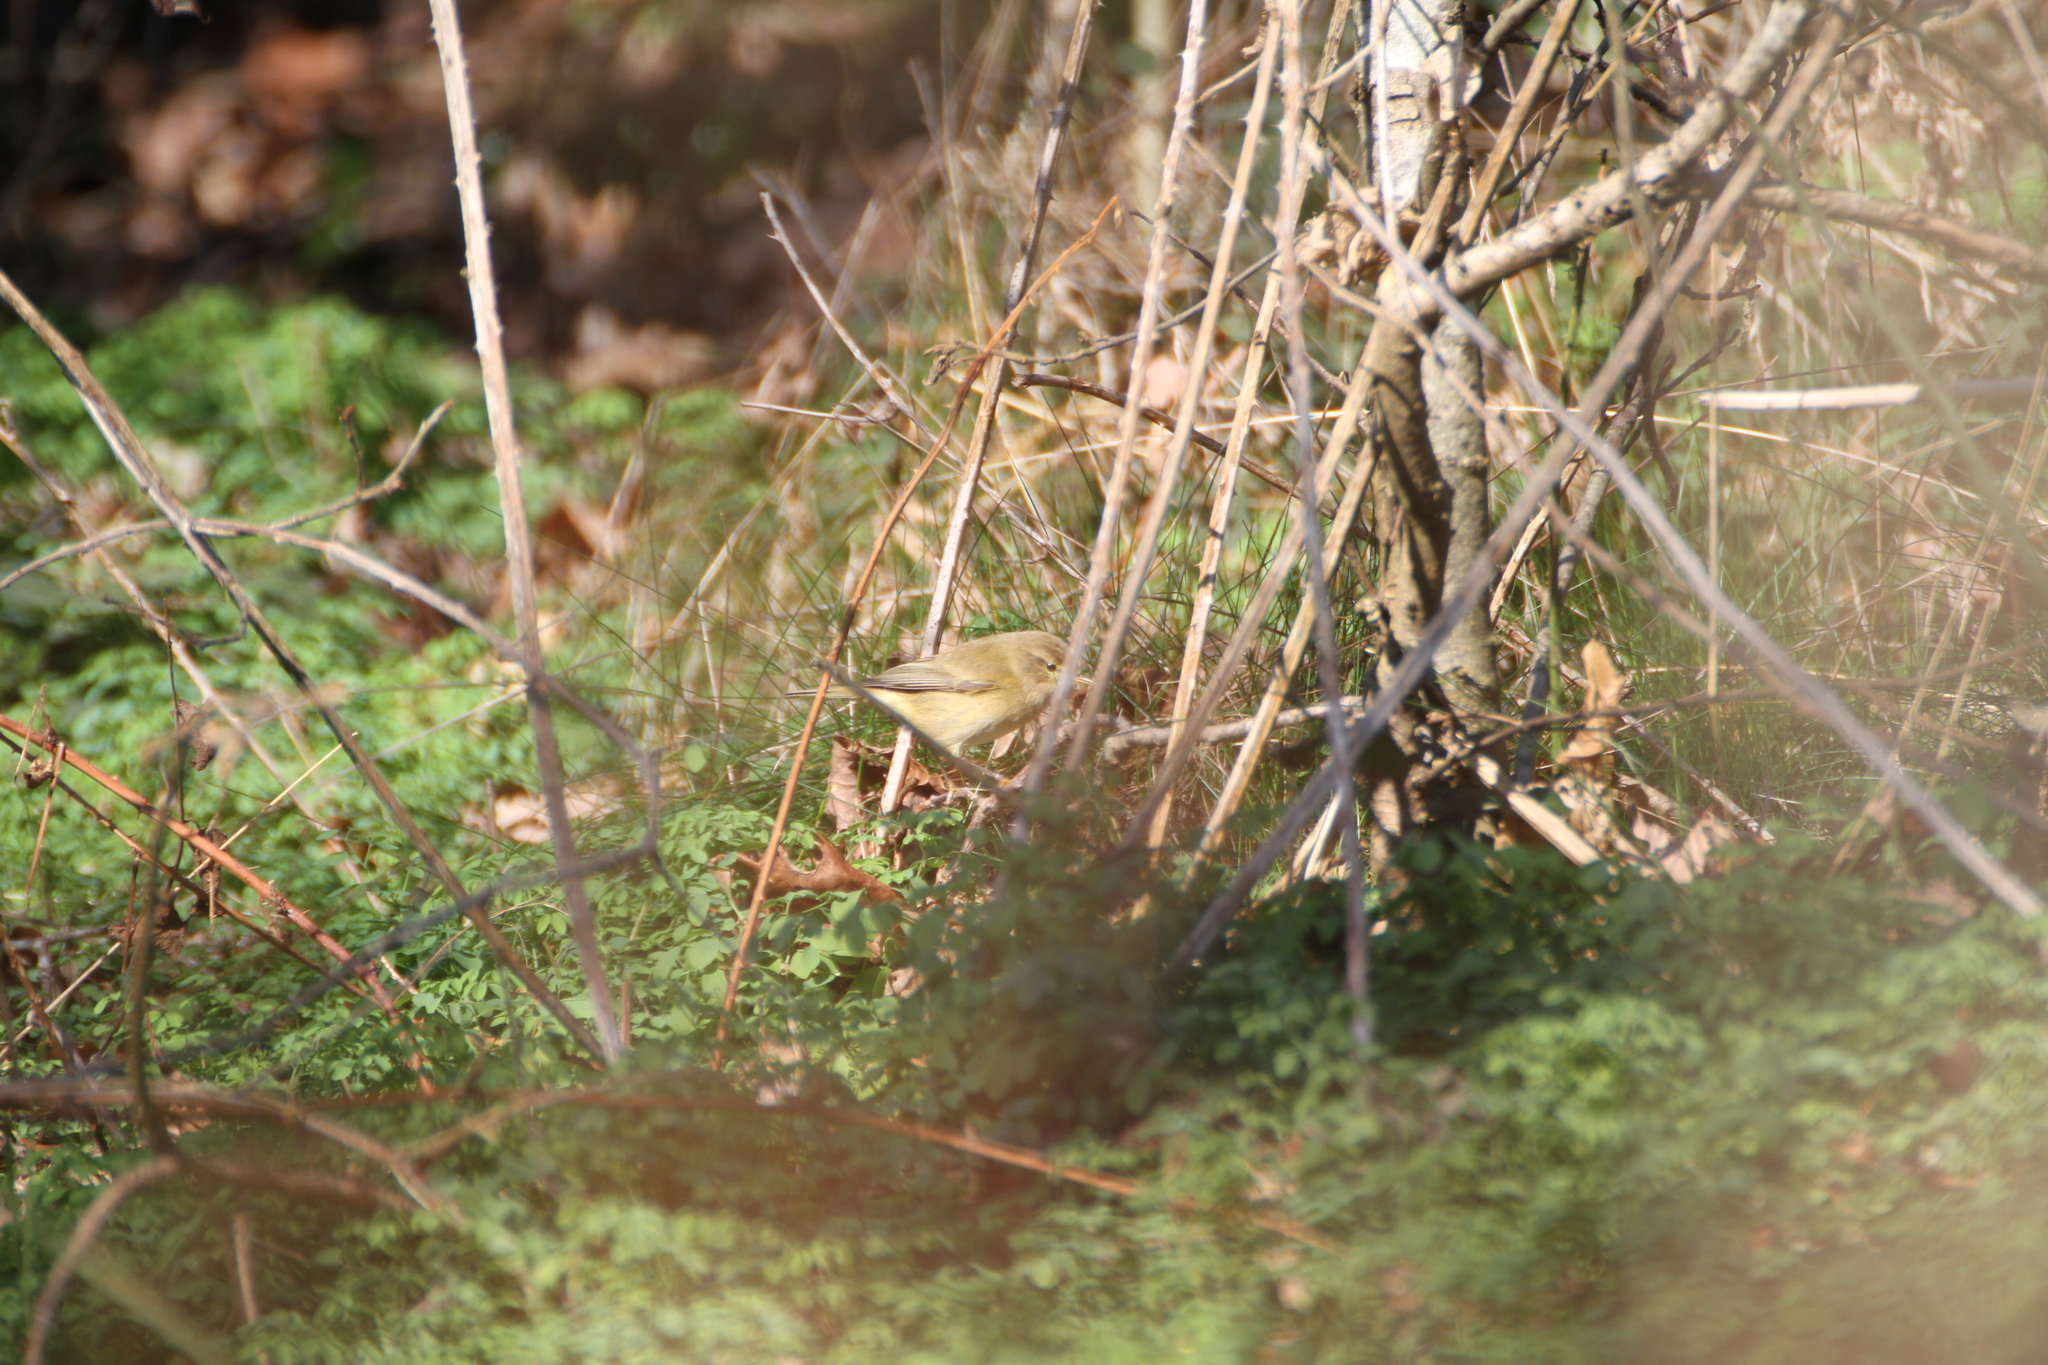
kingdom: Animalia
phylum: Chordata
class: Aves
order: Passeriformes
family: Phylloscopidae
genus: Phylloscopus
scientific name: Phylloscopus collybita
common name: Common chiffchaff
